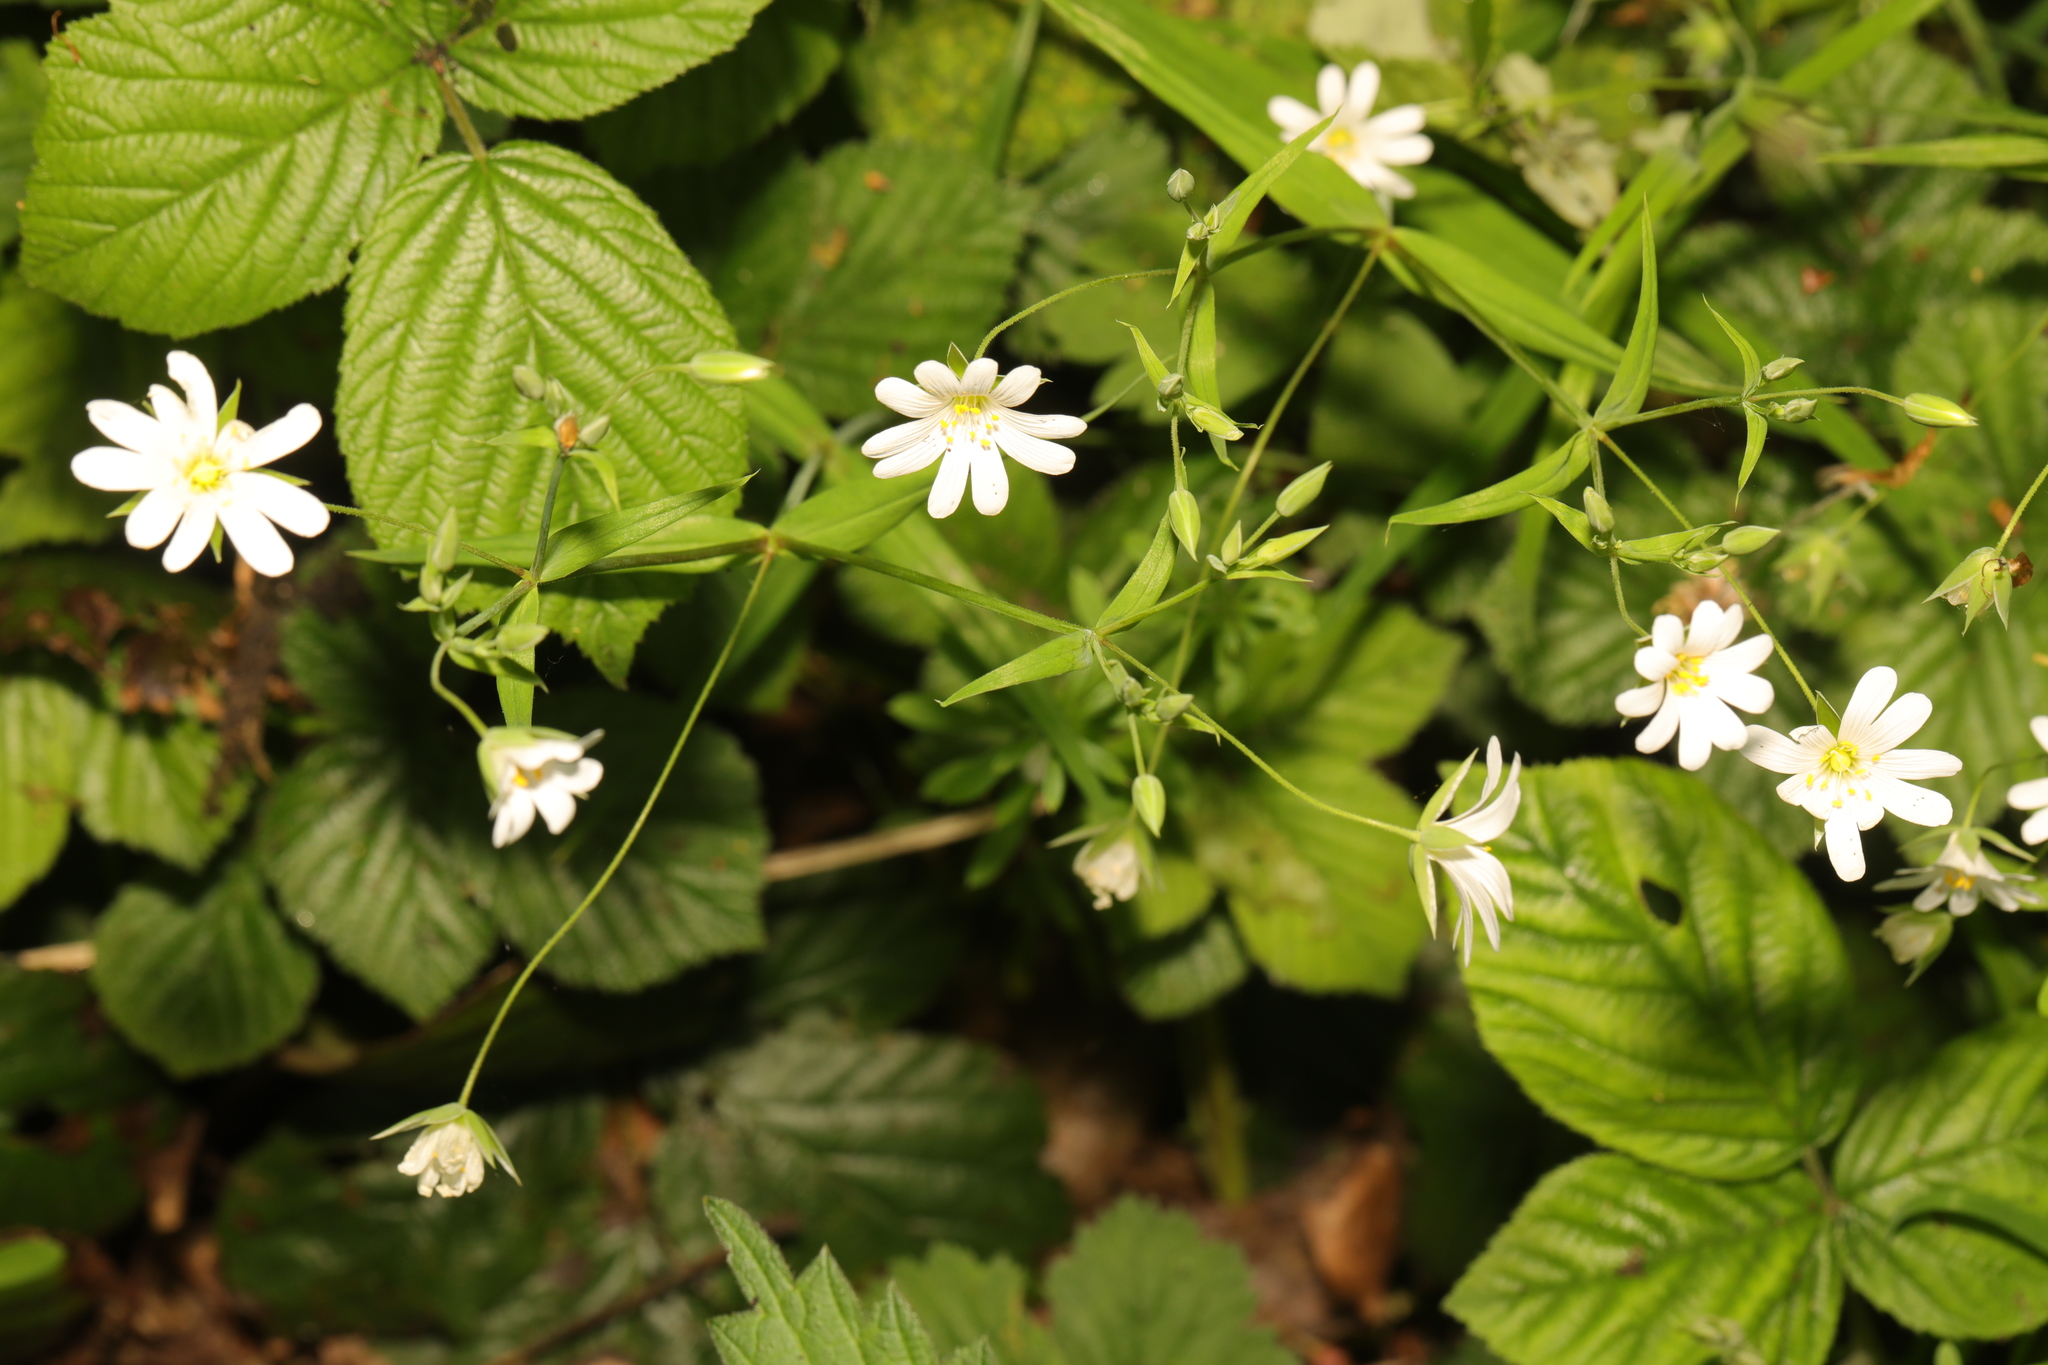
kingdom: Plantae
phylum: Tracheophyta
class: Magnoliopsida
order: Caryophyllales
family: Caryophyllaceae
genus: Rabelera
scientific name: Rabelera holostea
